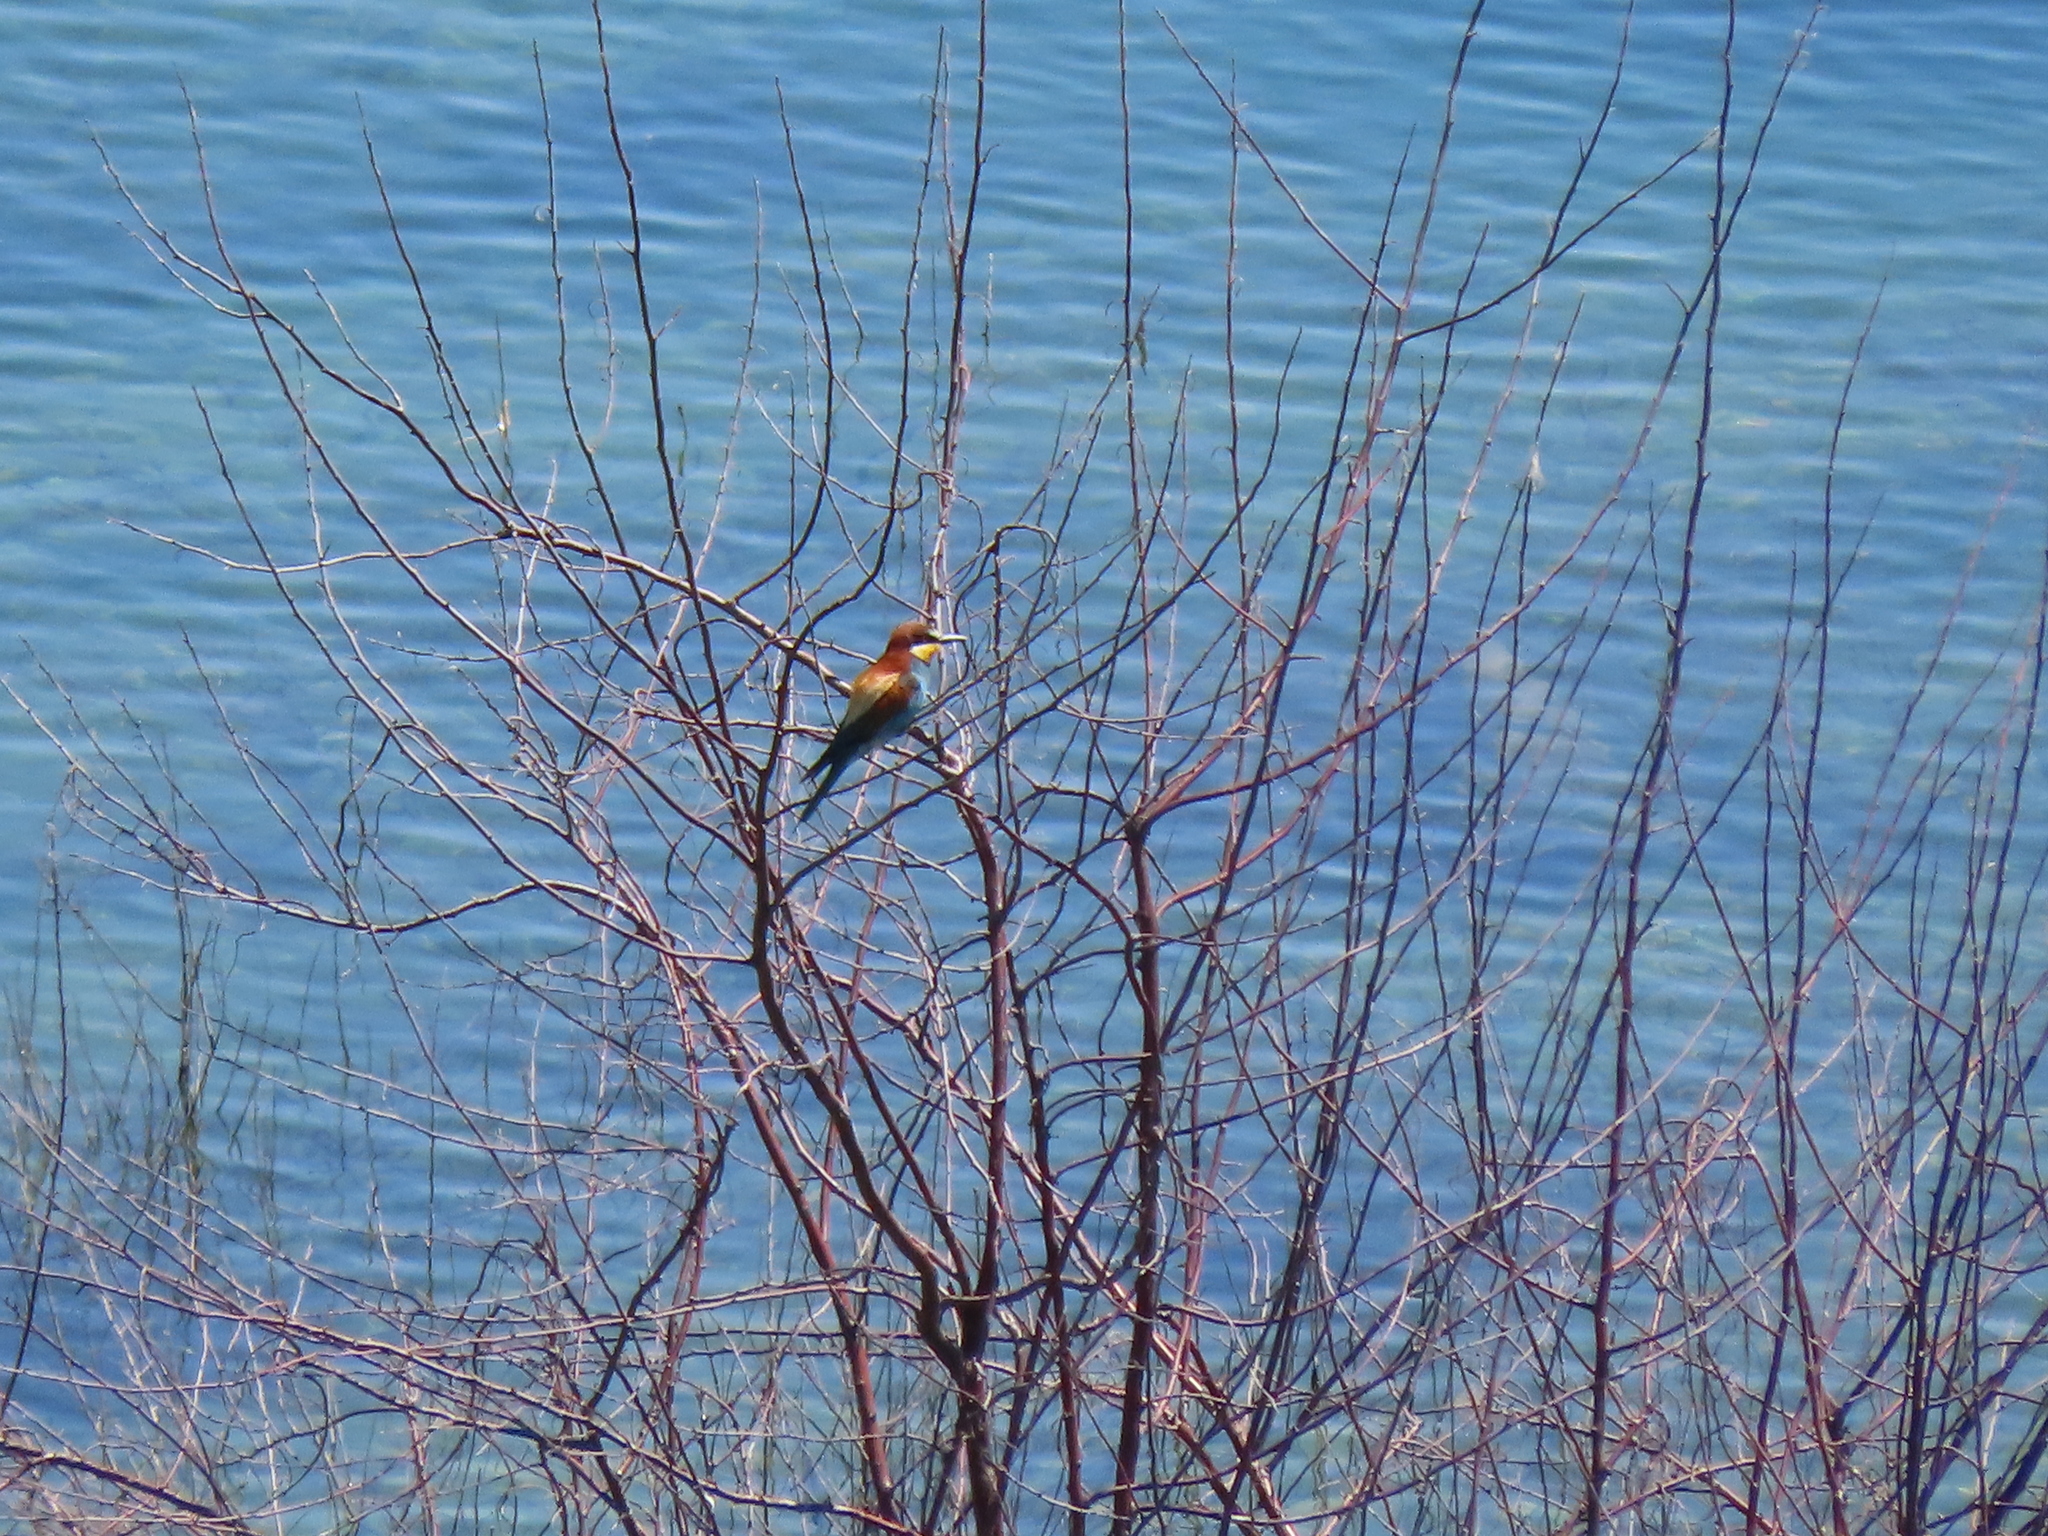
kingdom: Animalia
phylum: Chordata
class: Aves
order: Coraciiformes
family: Meropidae
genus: Merops
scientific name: Merops apiaster
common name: European bee-eater
